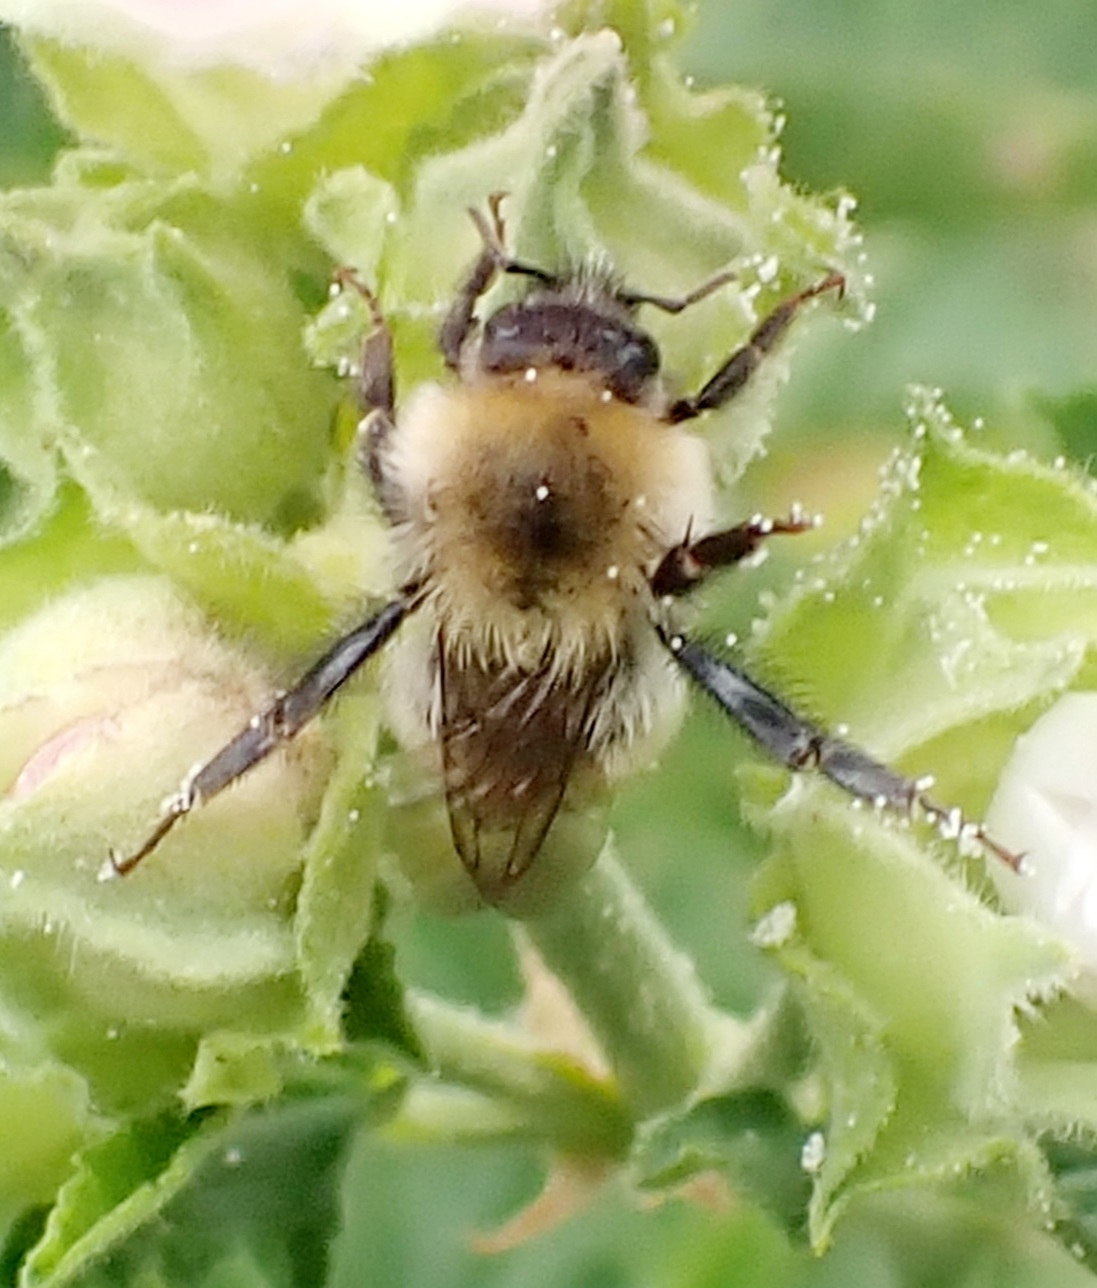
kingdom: Animalia
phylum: Arthropoda
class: Insecta
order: Hymenoptera
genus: Thoracobombus
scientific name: Thoracobombus
